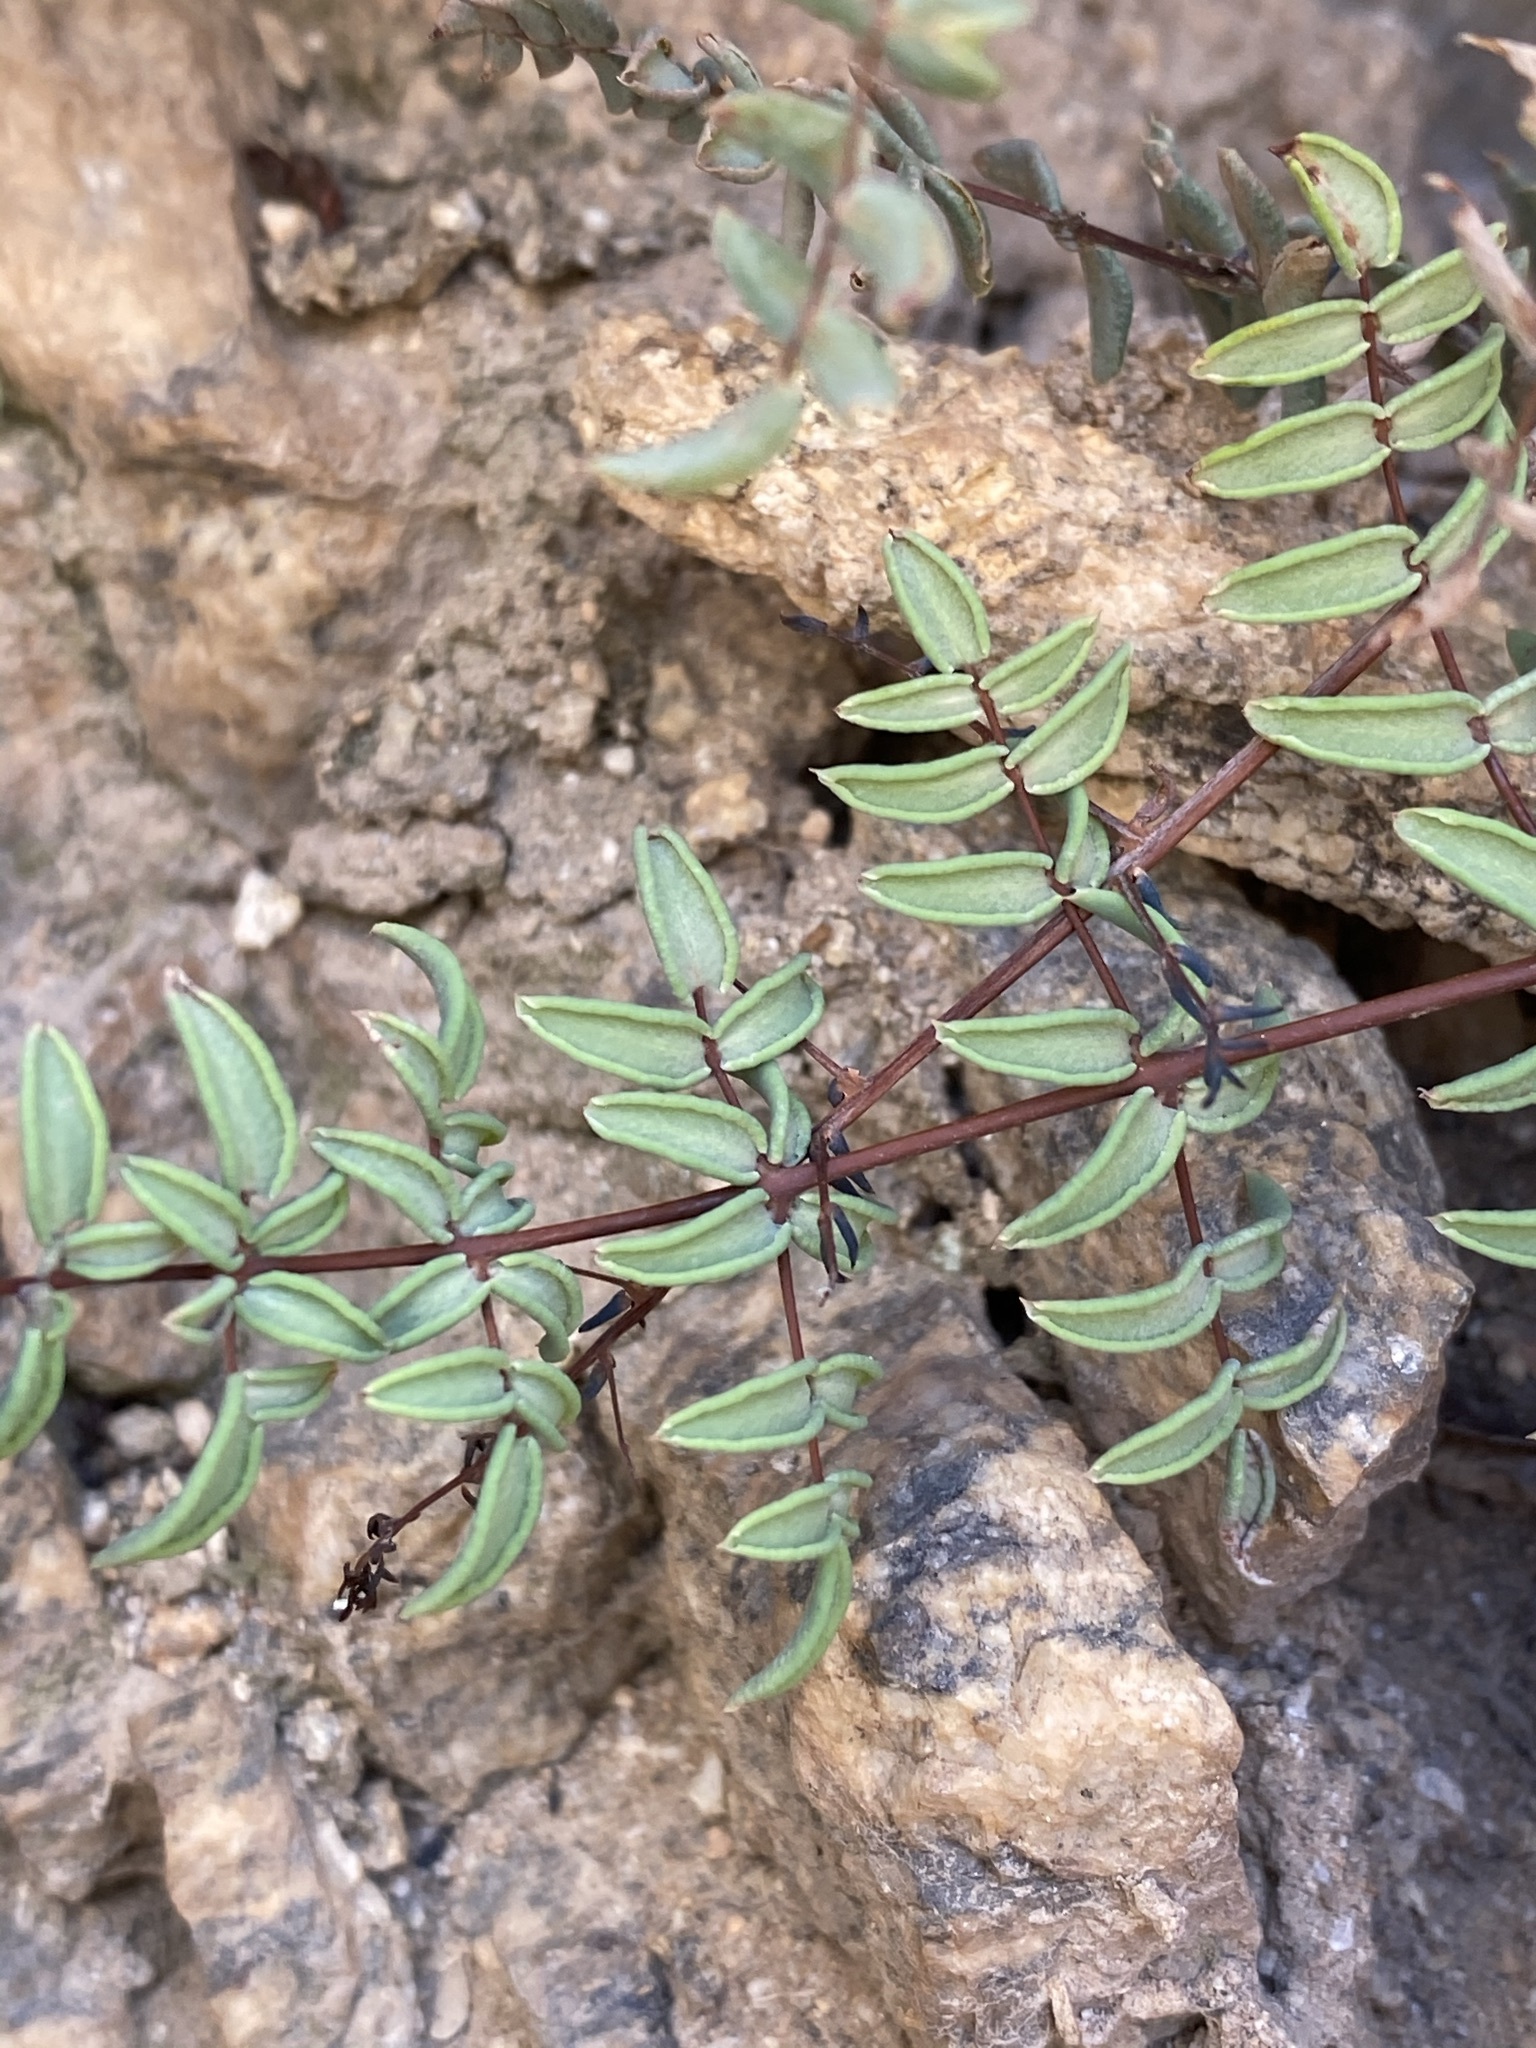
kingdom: Plantae
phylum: Tracheophyta
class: Polypodiopsida
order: Polypodiales
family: Pteridaceae
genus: Pellaea
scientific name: Pellaea truncata
